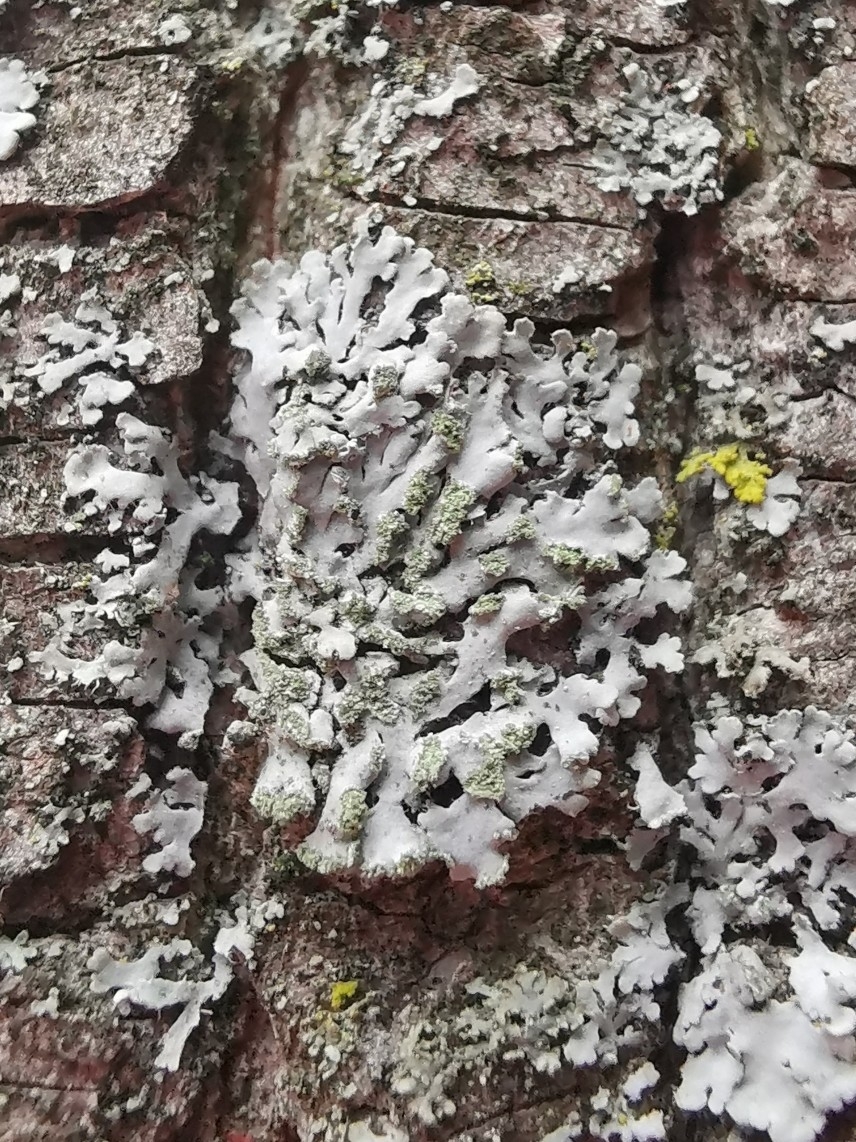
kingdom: Fungi
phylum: Ascomycota
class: Lecanoromycetes
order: Caliciales
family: Physciaceae
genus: Phaeophyscia
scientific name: Phaeophyscia orbicularis
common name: Mealy shadow lichen
